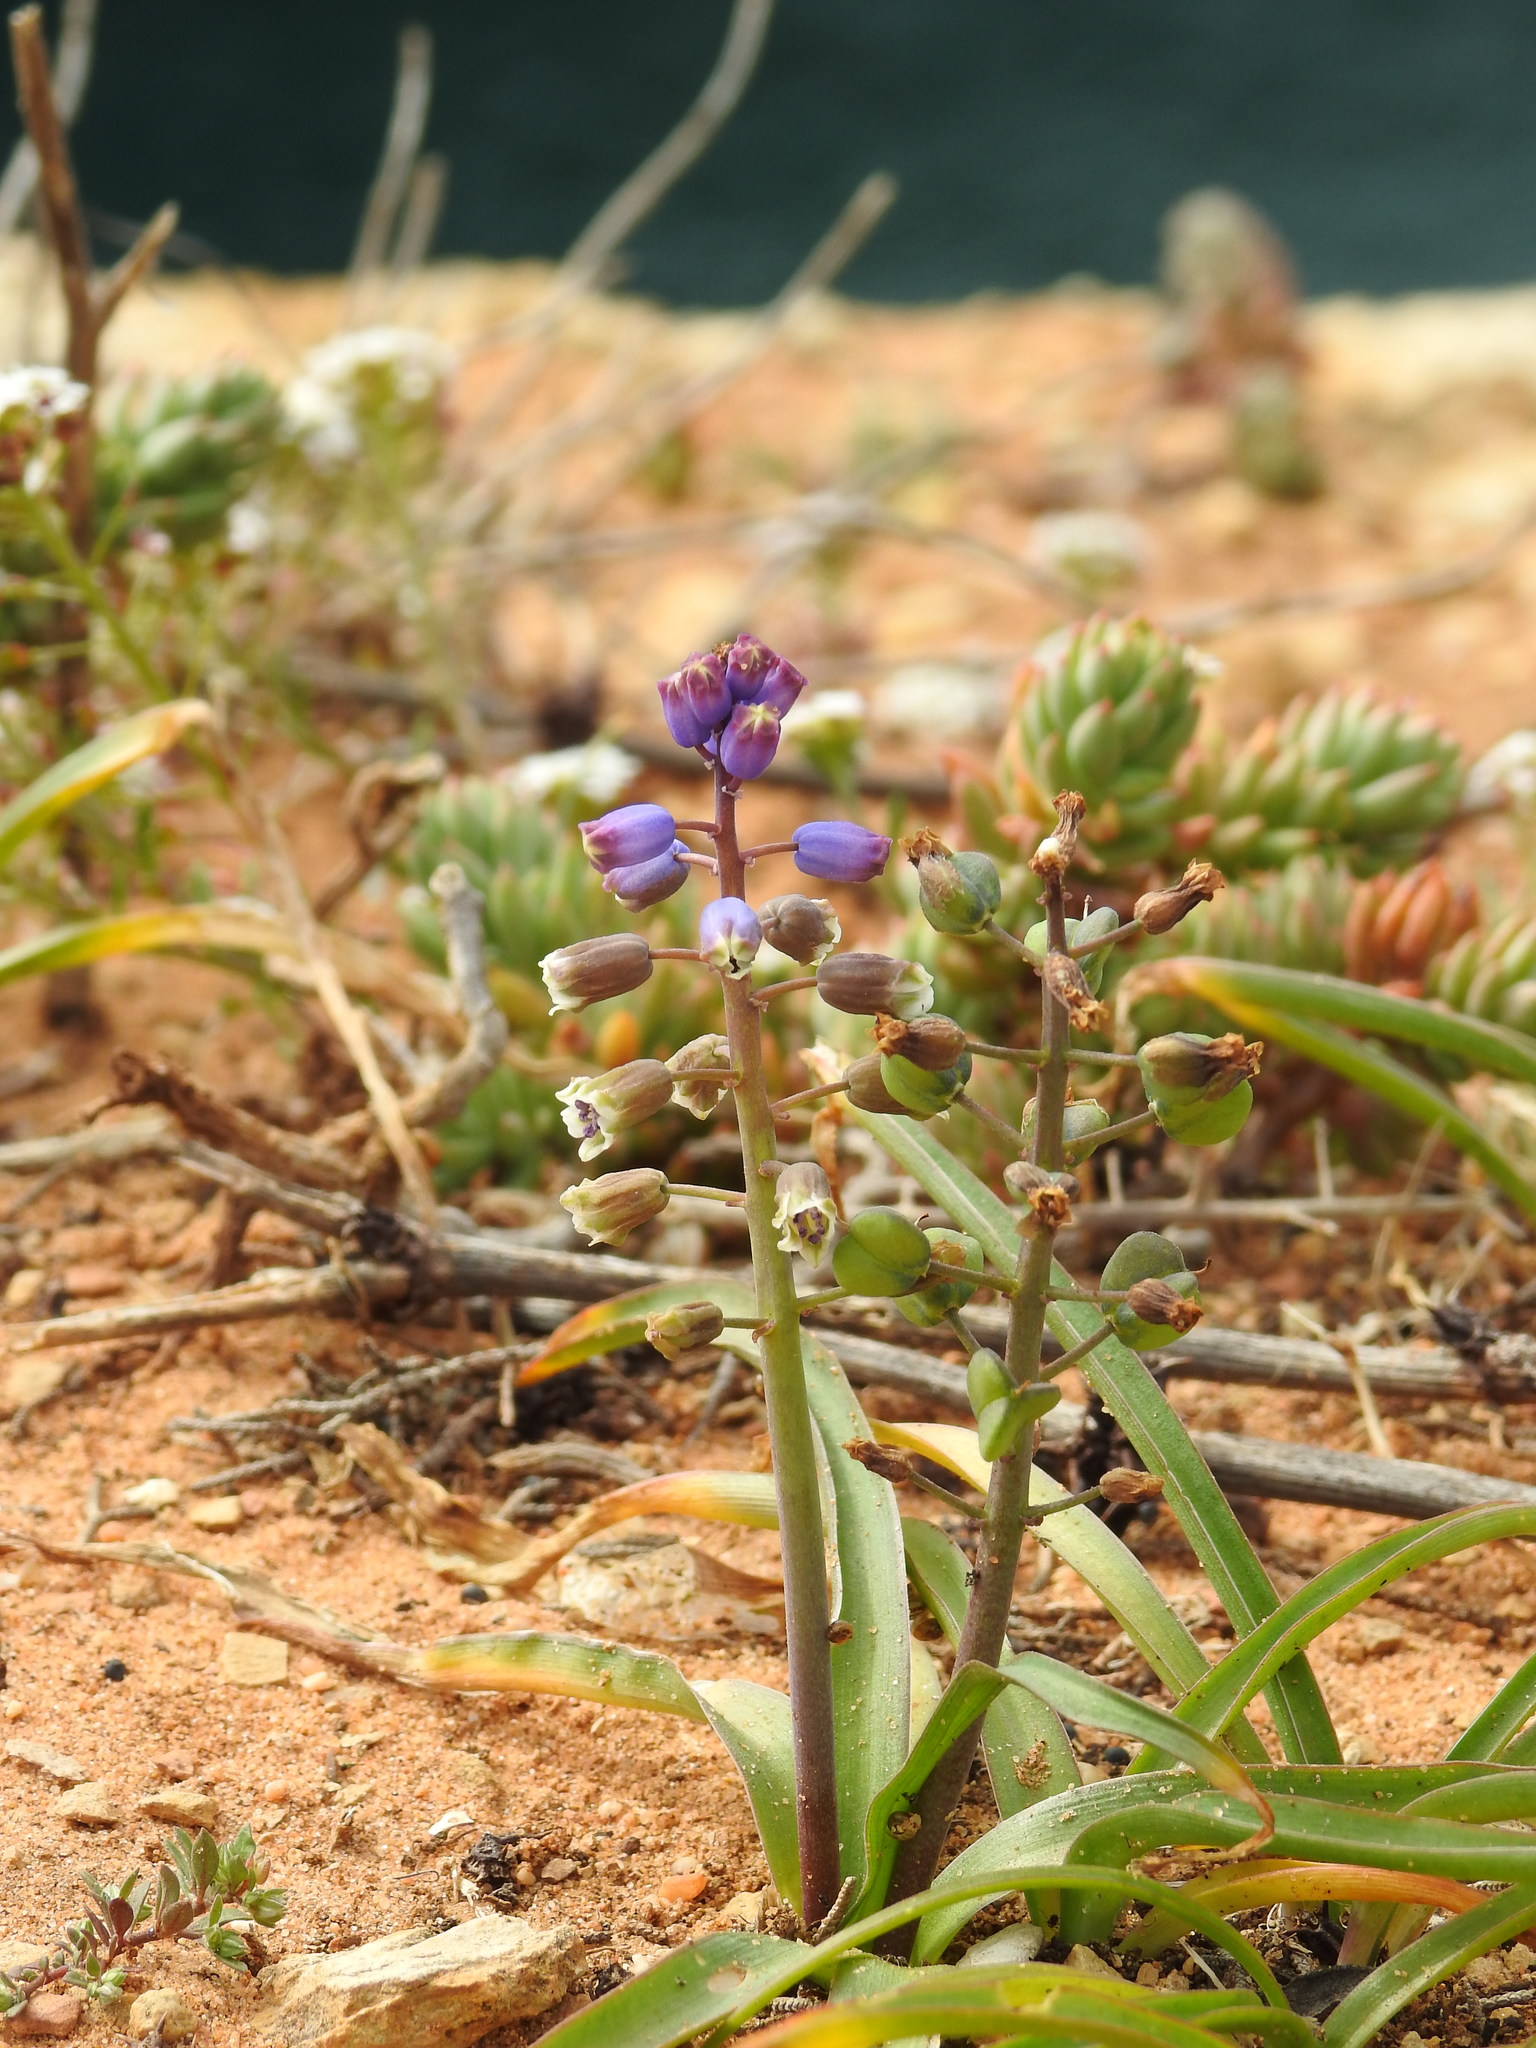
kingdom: Plantae
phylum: Tracheophyta
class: Liliopsida
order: Asparagales
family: Asparagaceae
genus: Bellevalia
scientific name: Bellevalia dubia
